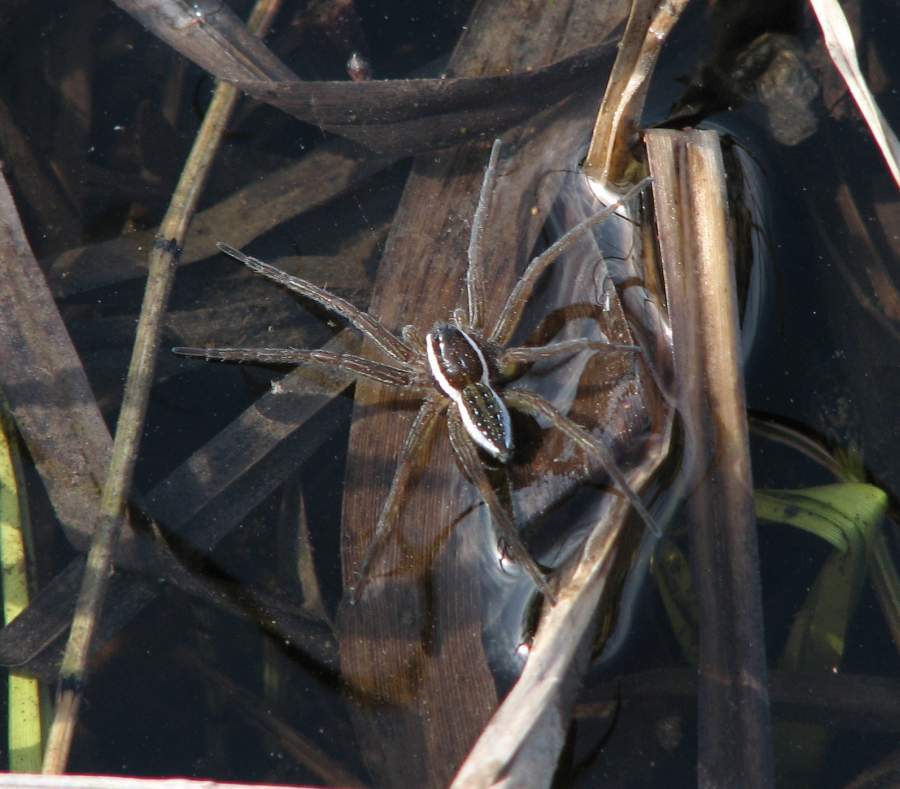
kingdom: Animalia
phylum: Arthropoda
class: Arachnida
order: Araneae
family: Pisauridae
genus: Dolomedes
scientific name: Dolomedes triton
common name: Six-spotted fishing spider
